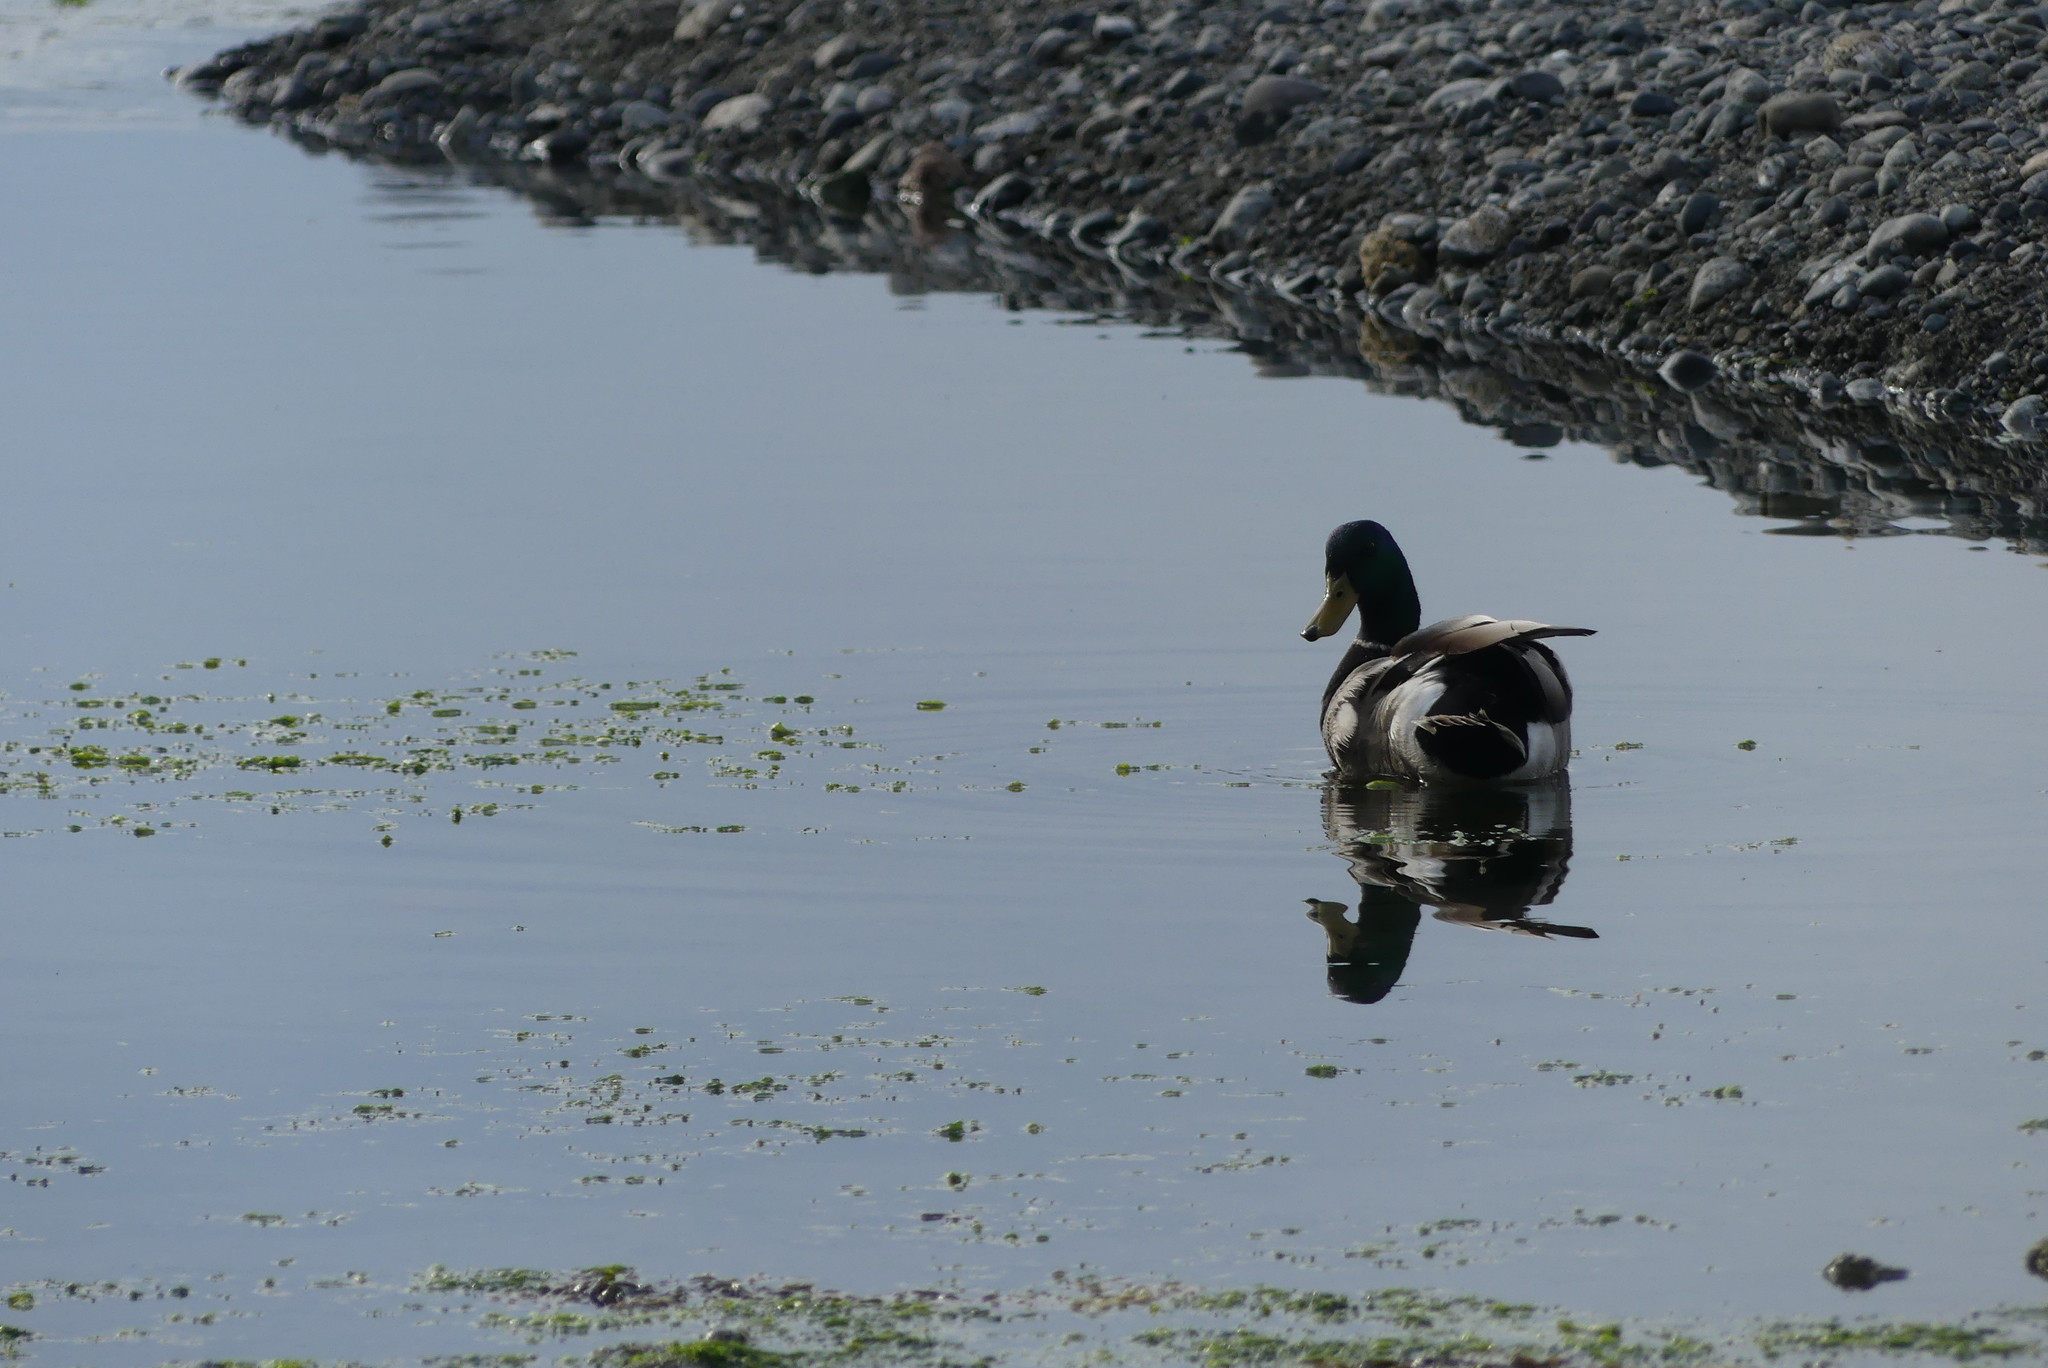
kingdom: Animalia
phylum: Chordata
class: Aves
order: Anseriformes
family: Anatidae
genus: Anas
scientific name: Anas platyrhynchos
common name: Mallard
